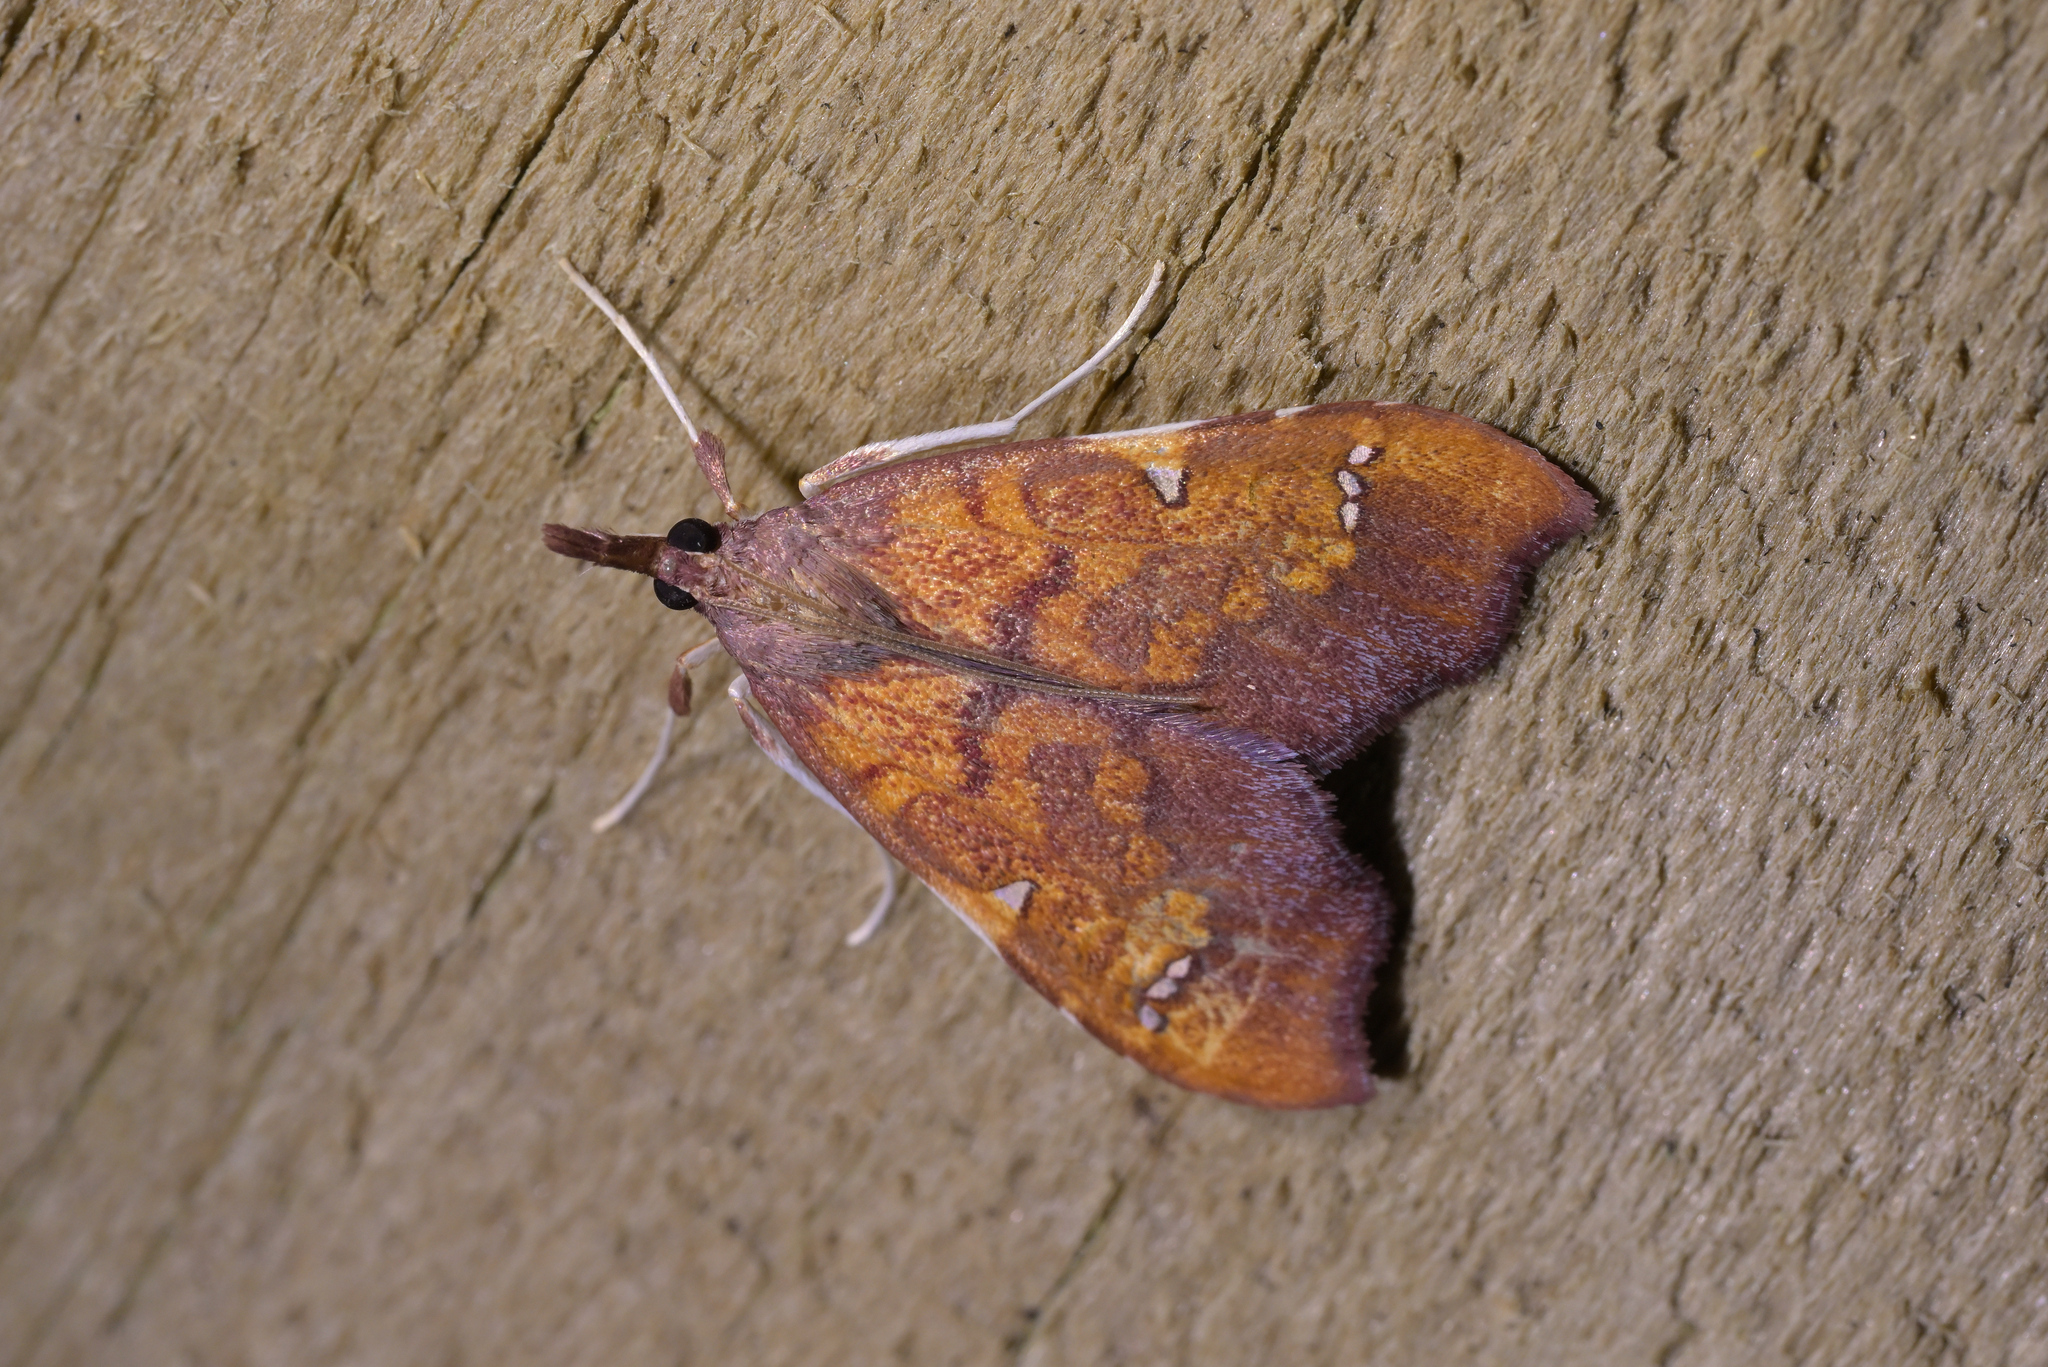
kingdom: Animalia
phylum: Arthropoda
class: Insecta
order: Lepidoptera
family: Crambidae
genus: Deana
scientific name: Deana hybreasalis
